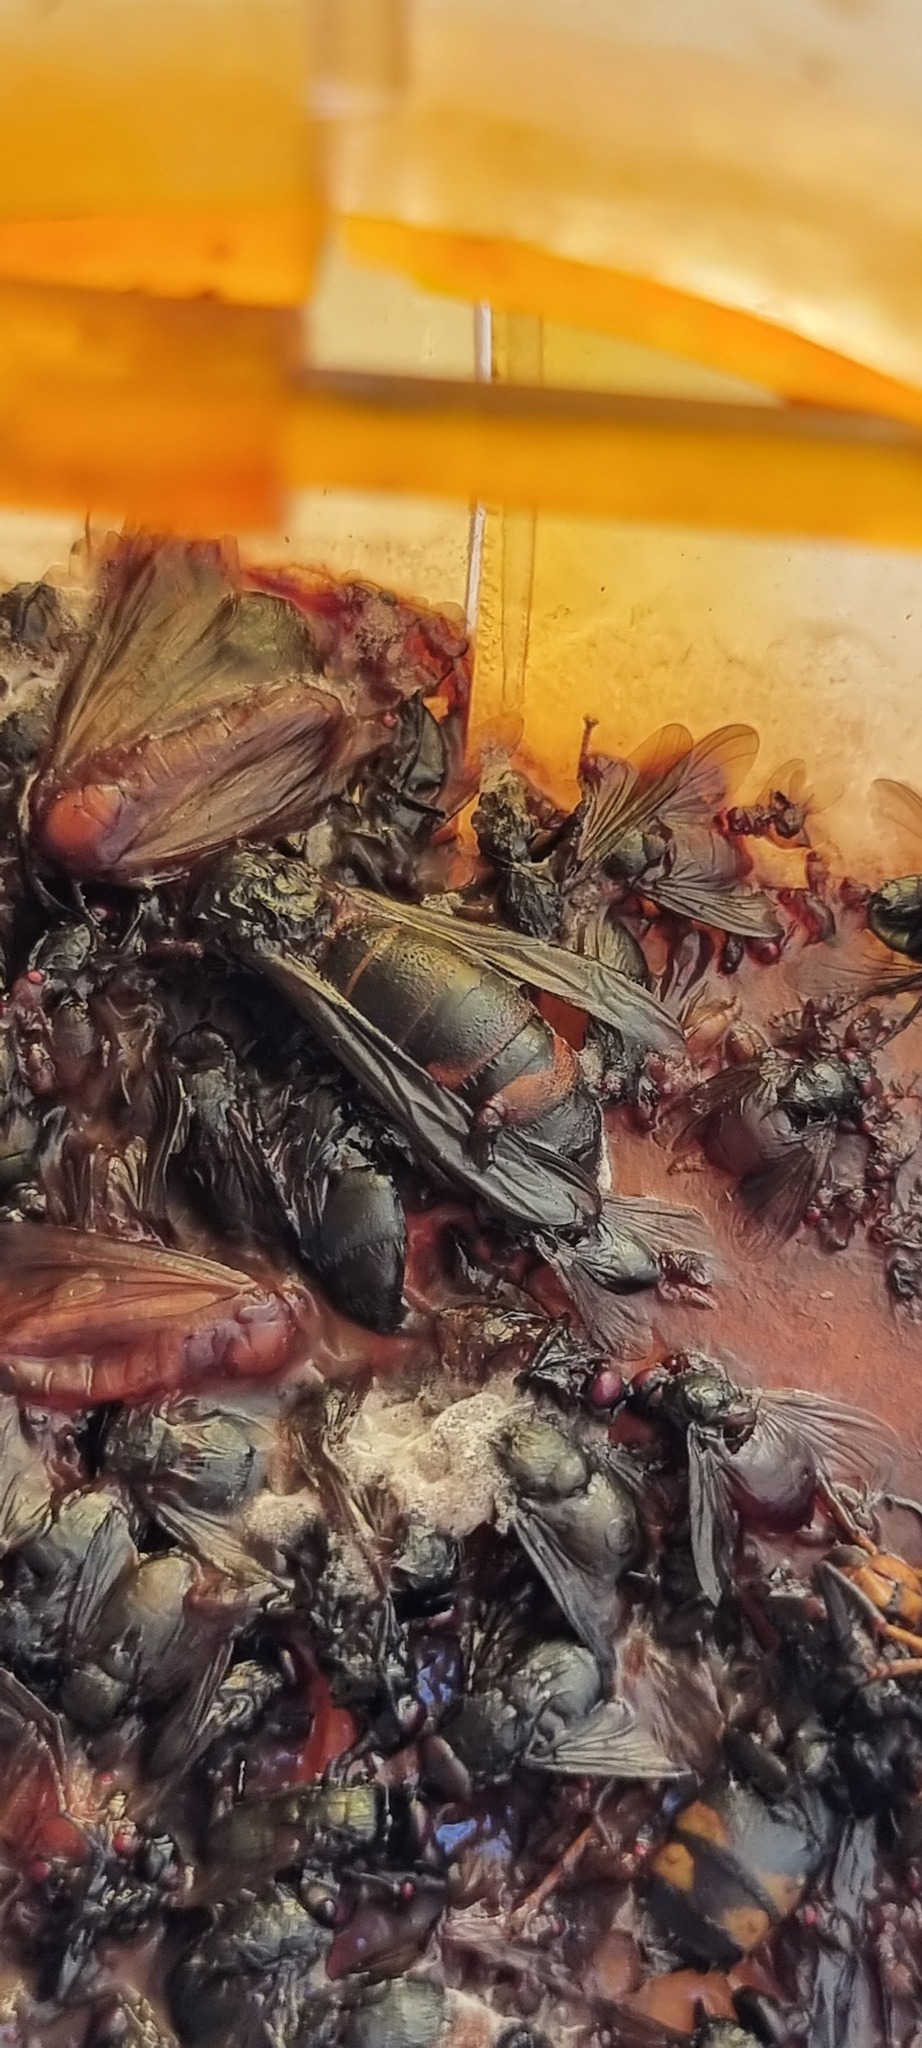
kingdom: Animalia
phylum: Arthropoda
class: Insecta
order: Hymenoptera
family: Vespidae
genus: Vespa
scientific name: Vespa velutina
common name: Asian hornet
